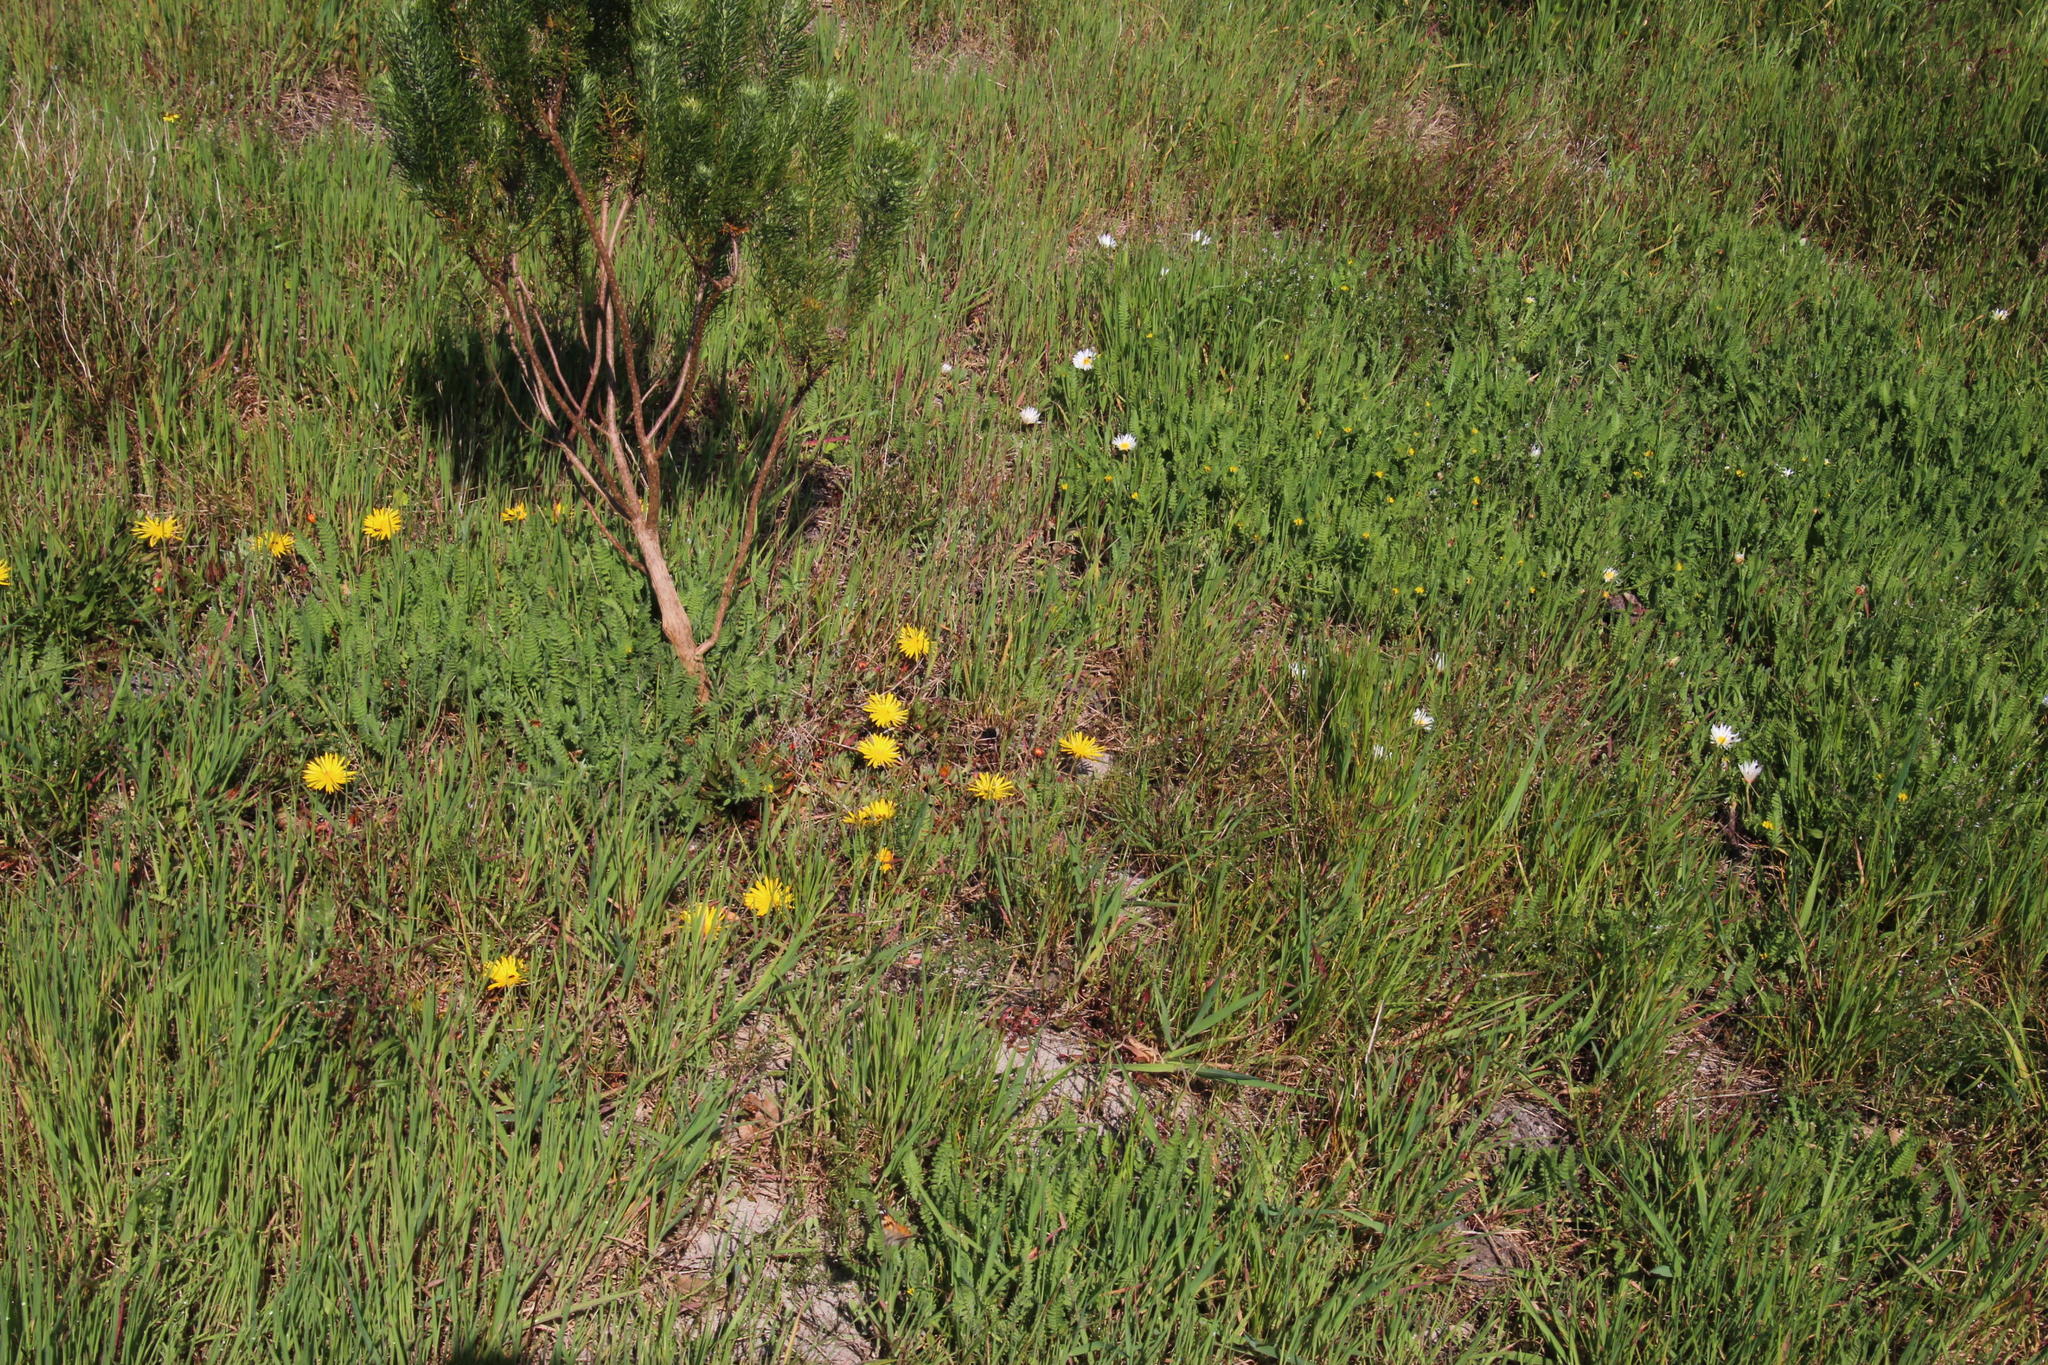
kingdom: Plantae
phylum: Tracheophyta
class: Magnoliopsida
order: Caryophyllales
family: Aizoaceae
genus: Lampranthus
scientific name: Lampranthus reptans
